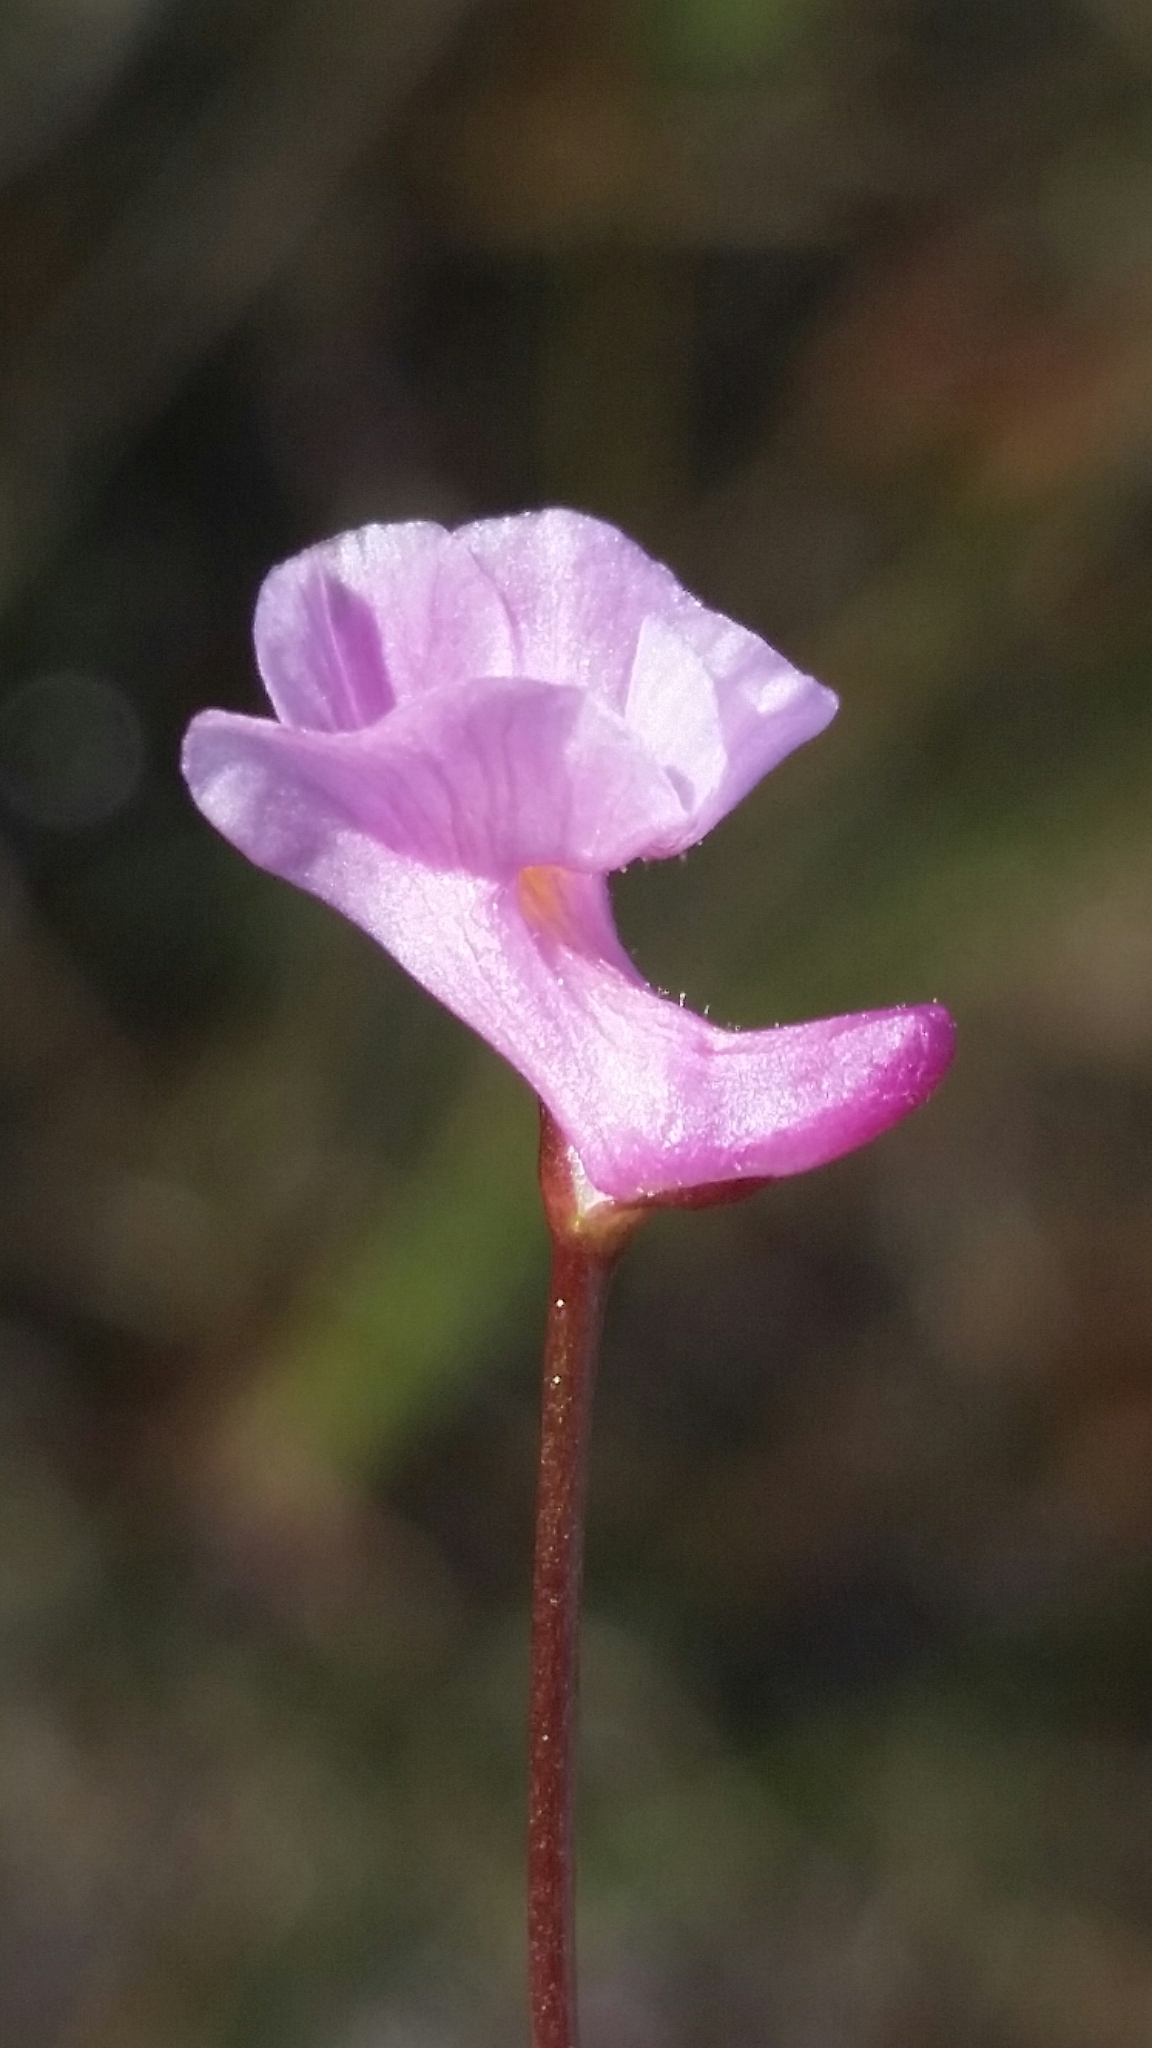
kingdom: Plantae
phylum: Tracheophyta
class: Magnoliopsida
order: Lamiales
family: Lentibulariaceae
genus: Utricularia
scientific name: Utricularia resupinata
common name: Northeastern bladderwort
